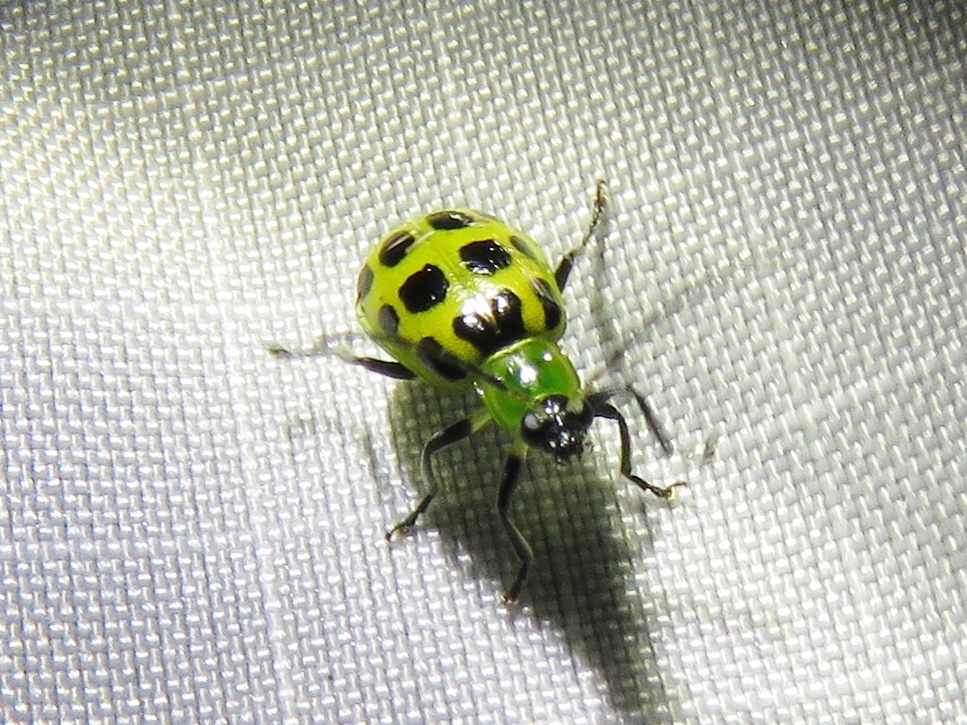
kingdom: Animalia
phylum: Arthropoda
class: Insecta
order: Coleoptera
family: Chrysomelidae
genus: Diabrotica
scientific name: Diabrotica undecimpunctata
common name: Spotted cucumber beetle
